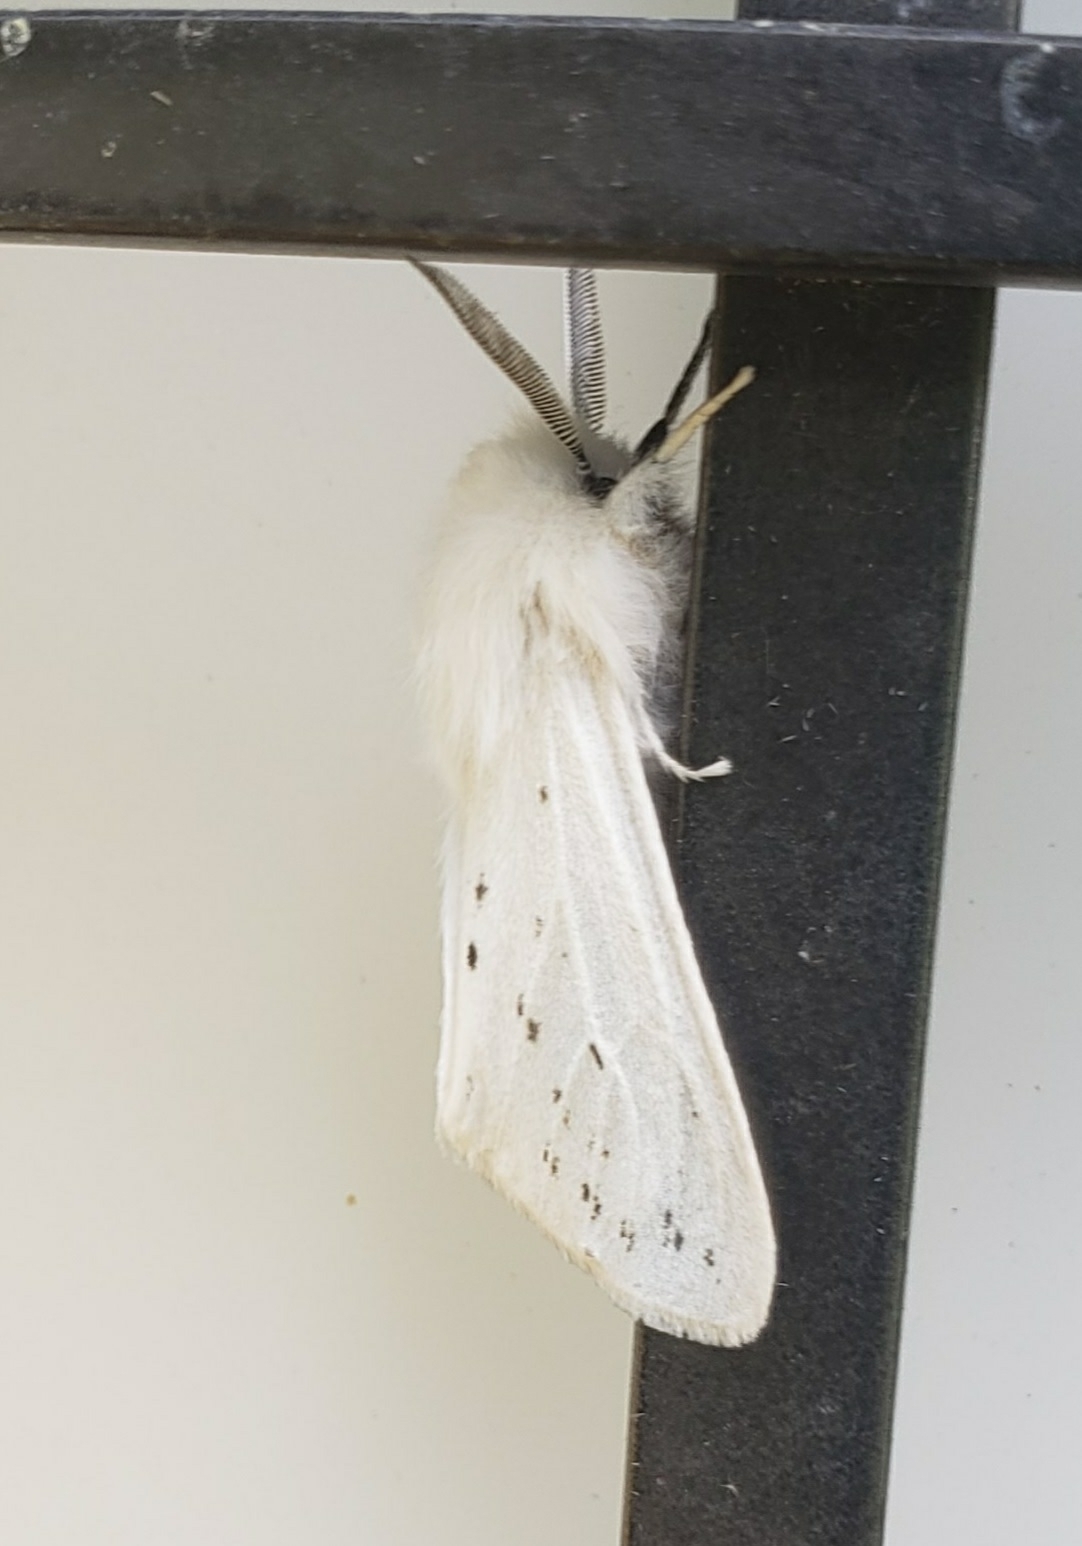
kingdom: Animalia
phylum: Arthropoda
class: Insecta
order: Lepidoptera
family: Erebidae
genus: Spilosoma
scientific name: Spilosoma congrua
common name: Agreeable tiger moth
